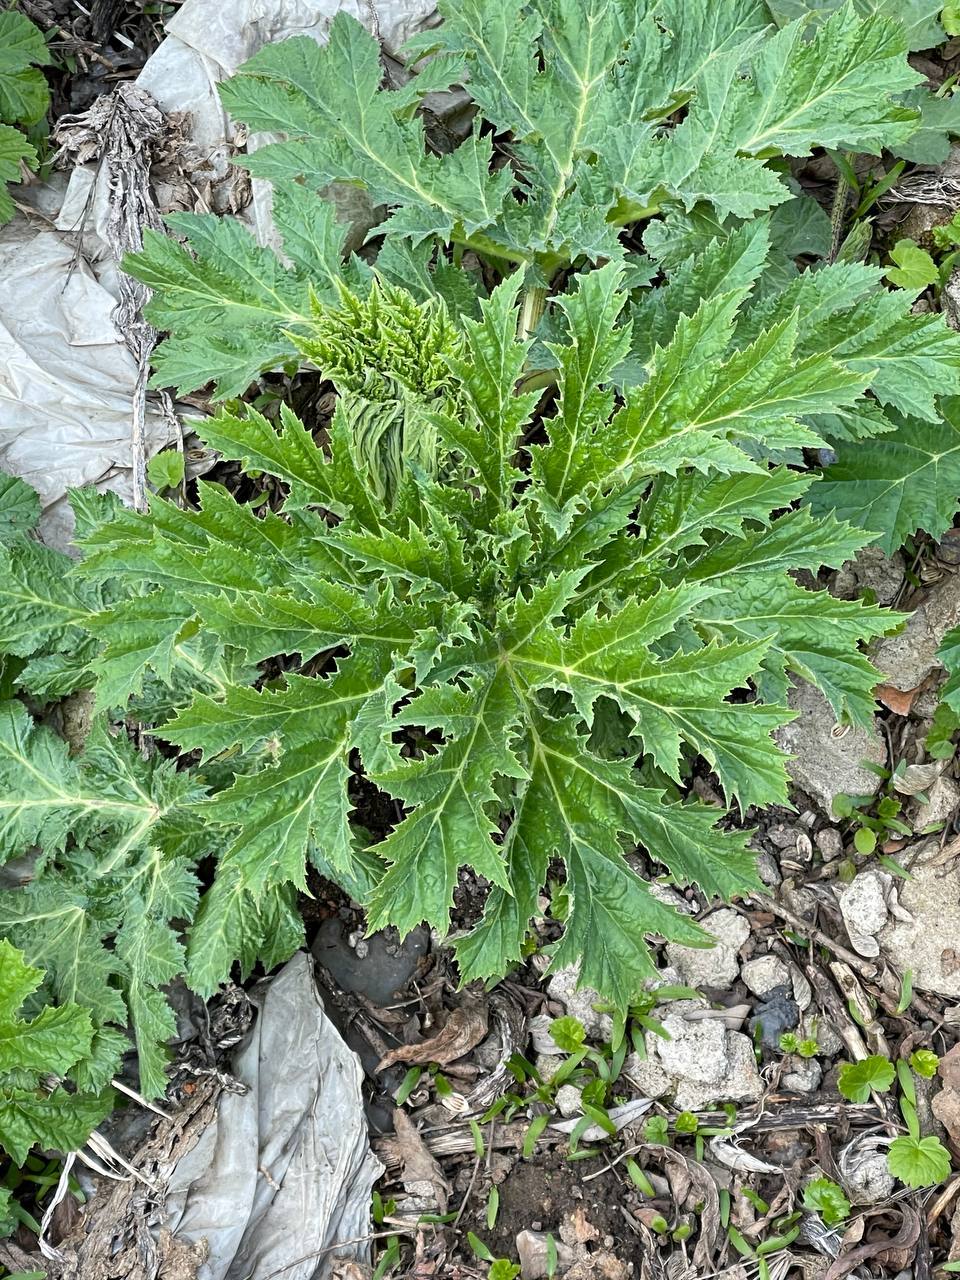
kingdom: Plantae
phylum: Tracheophyta
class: Magnoliopsida
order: Apiales
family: Apiaceae
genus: Heracleum
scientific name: Heracleum sosnowskyi
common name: Sosnowsky's hogweed
